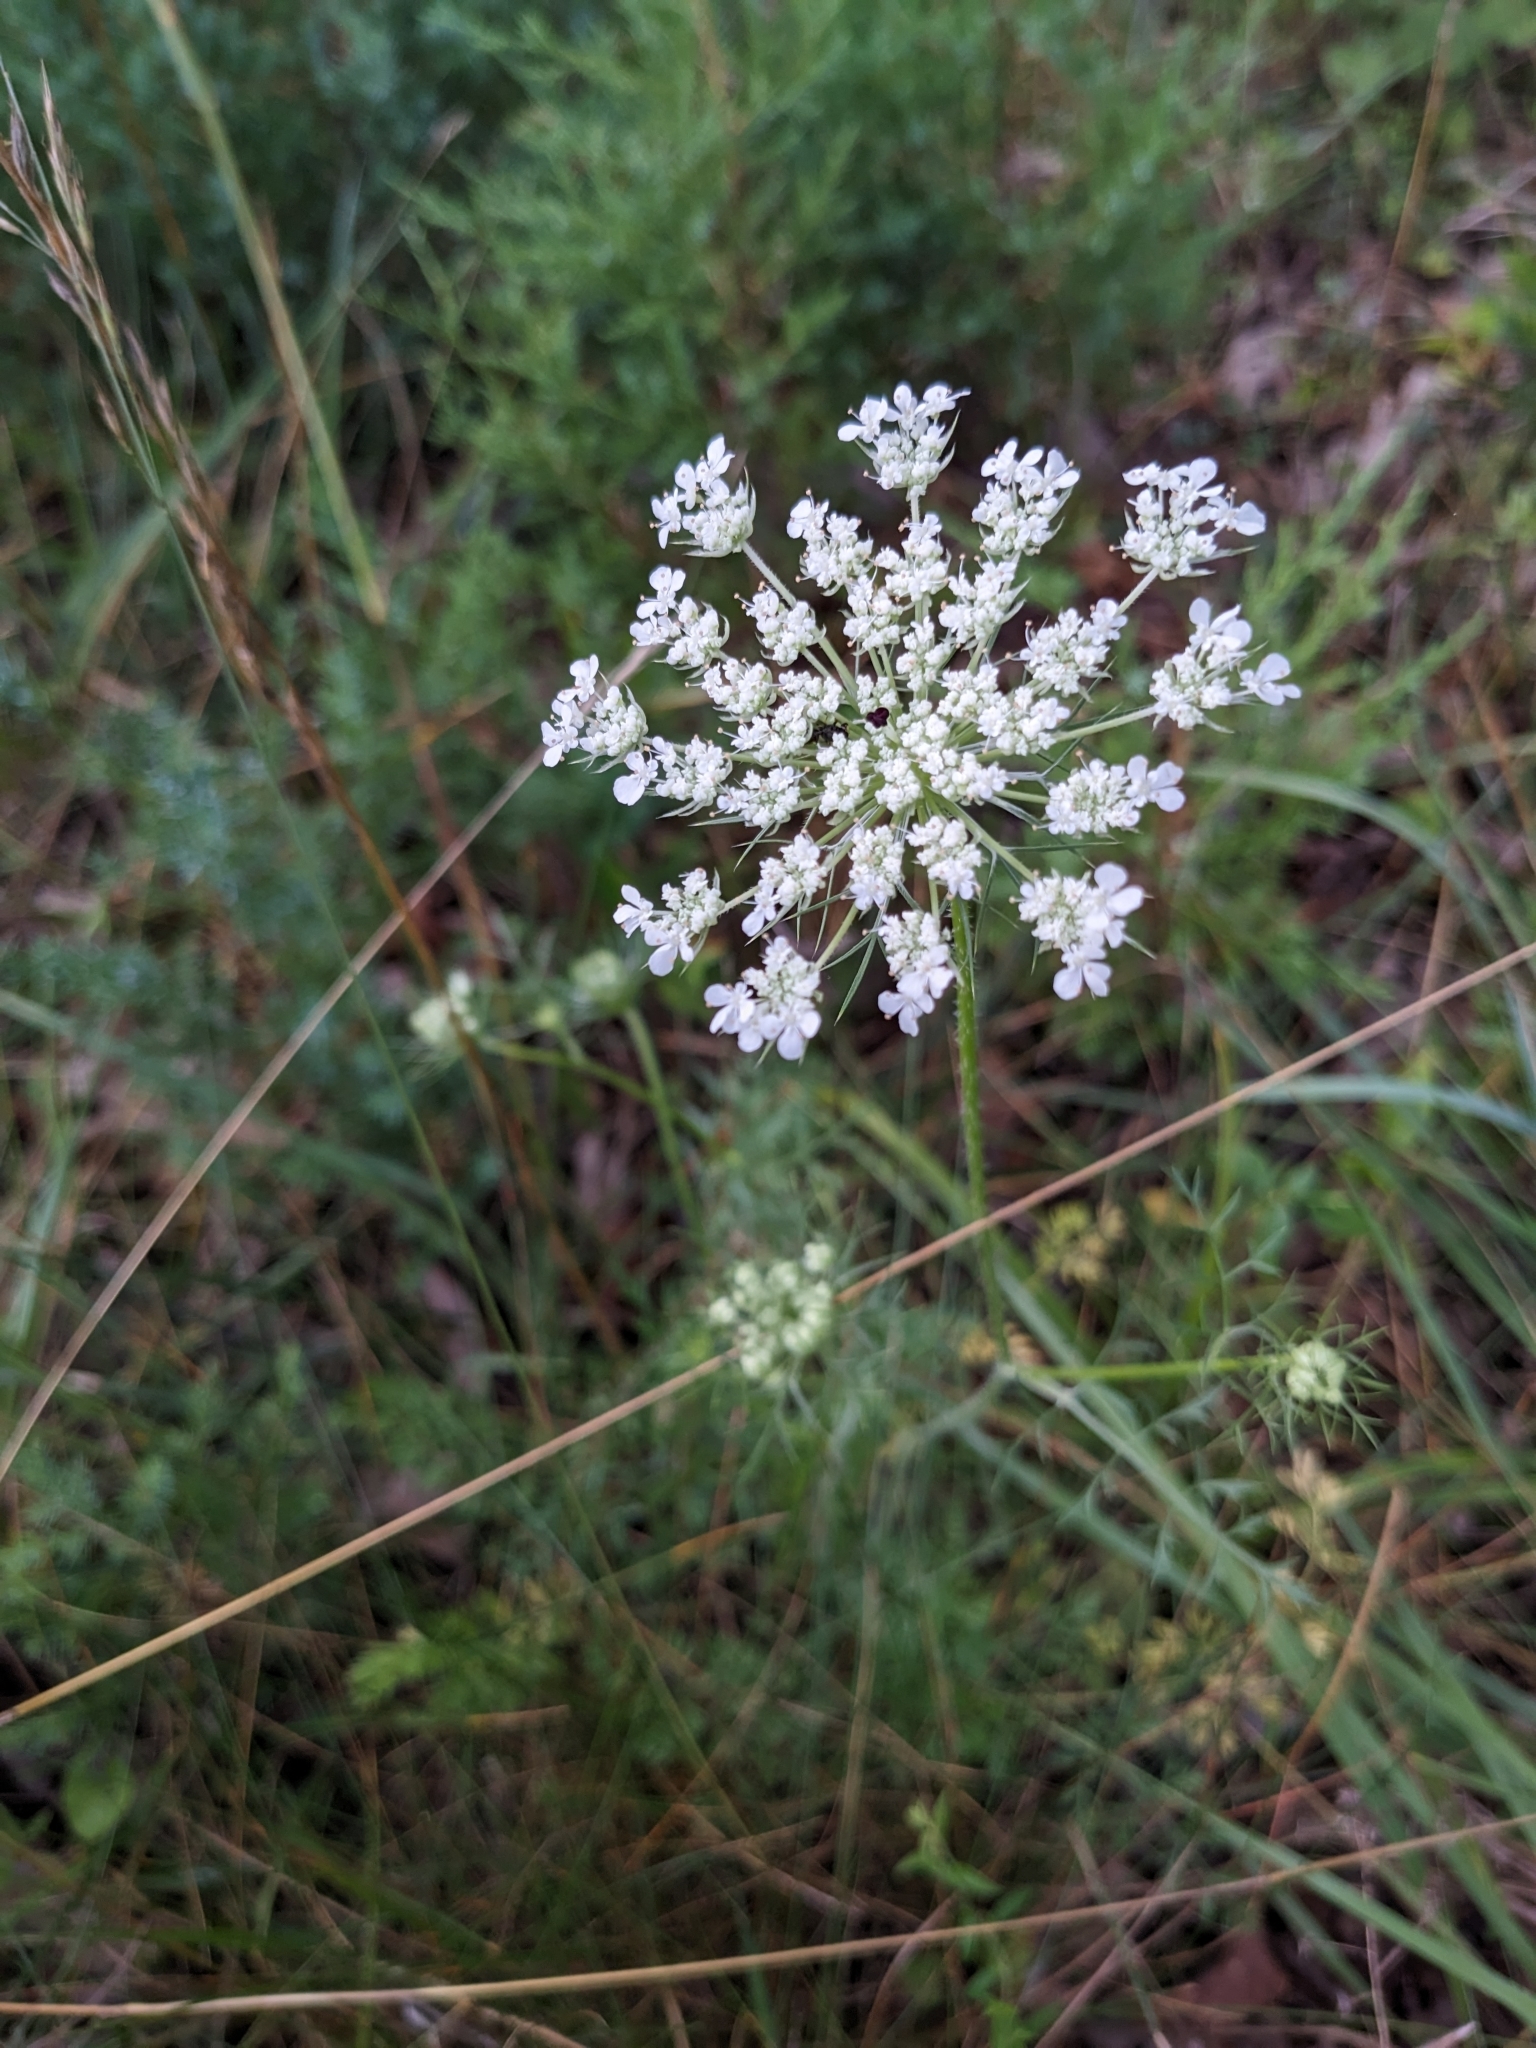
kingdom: Plantae
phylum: Tracheophyta
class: Magnoliopsida
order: Apiales
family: Apiaceae
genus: Daucus
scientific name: Daucus carota
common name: Wild carrot
